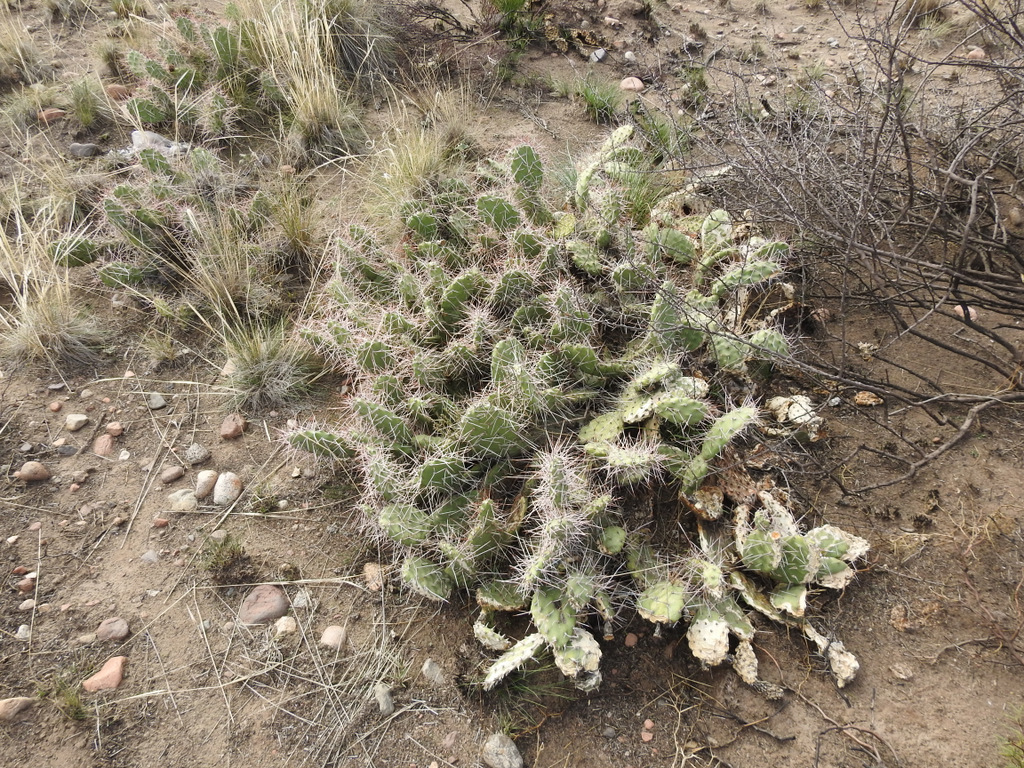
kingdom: Plantae
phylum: Tracheophyta
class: Magnoliopsida
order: Caryophyllales
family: Cactaceae
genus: Opuntia
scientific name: Opuntia sulphurea
